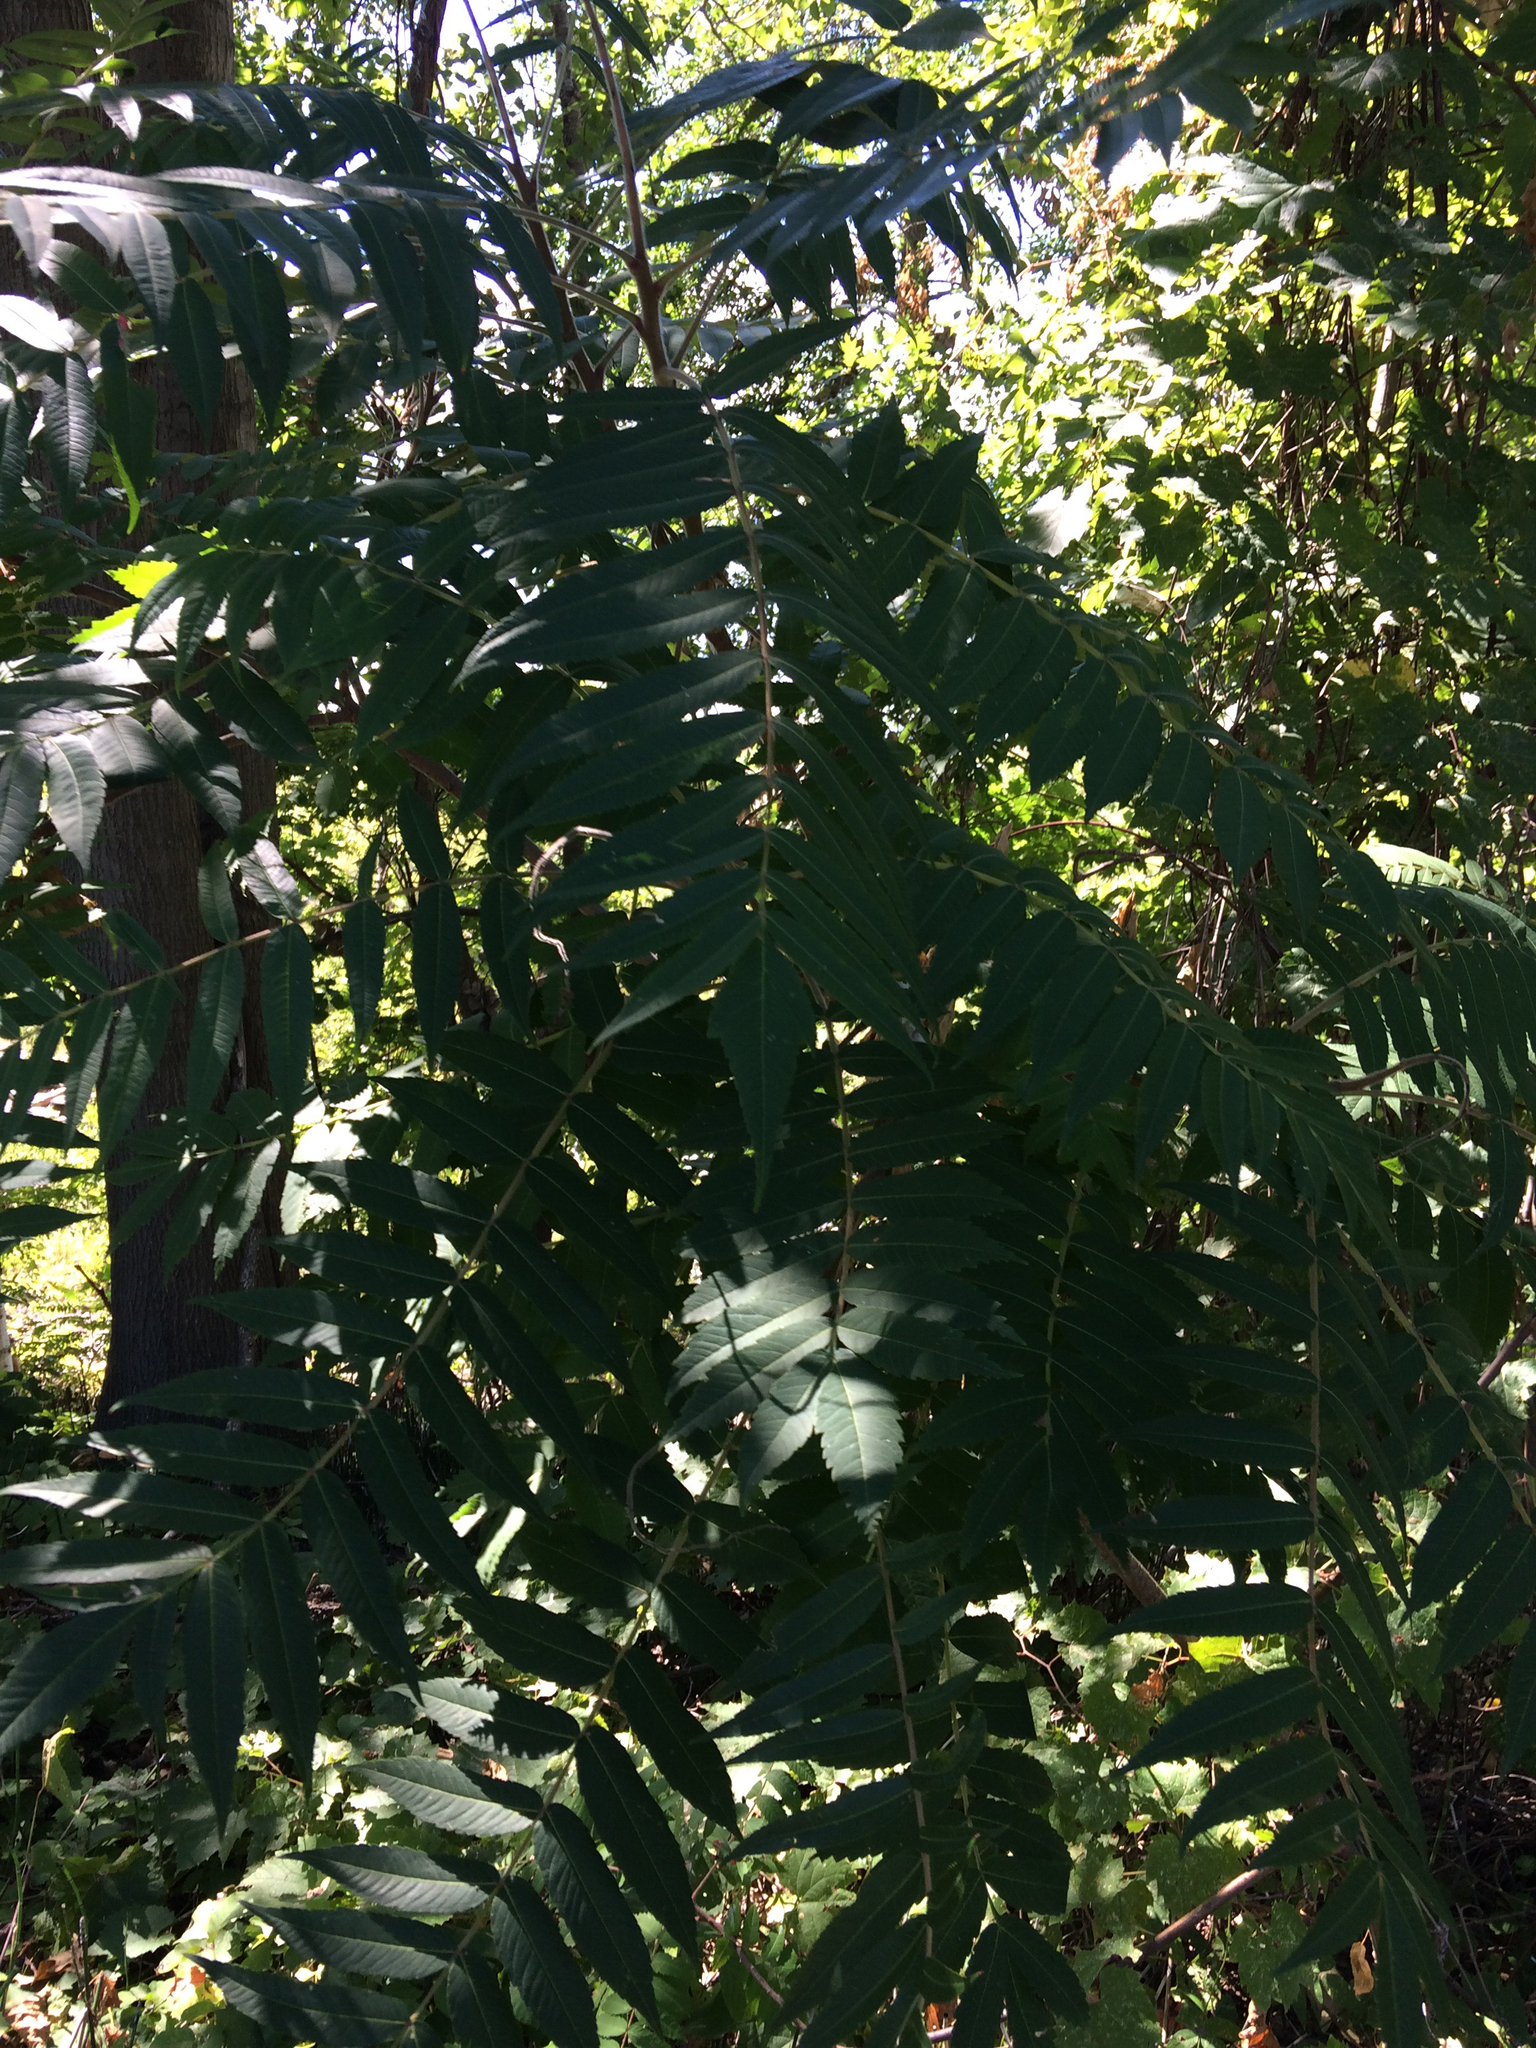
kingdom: Plantae
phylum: Tracheophyta
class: Magnoliopsida
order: Sapindales
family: Anacardiaceae
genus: Rhus
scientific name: Rhus typhina
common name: Staghorn sumac
